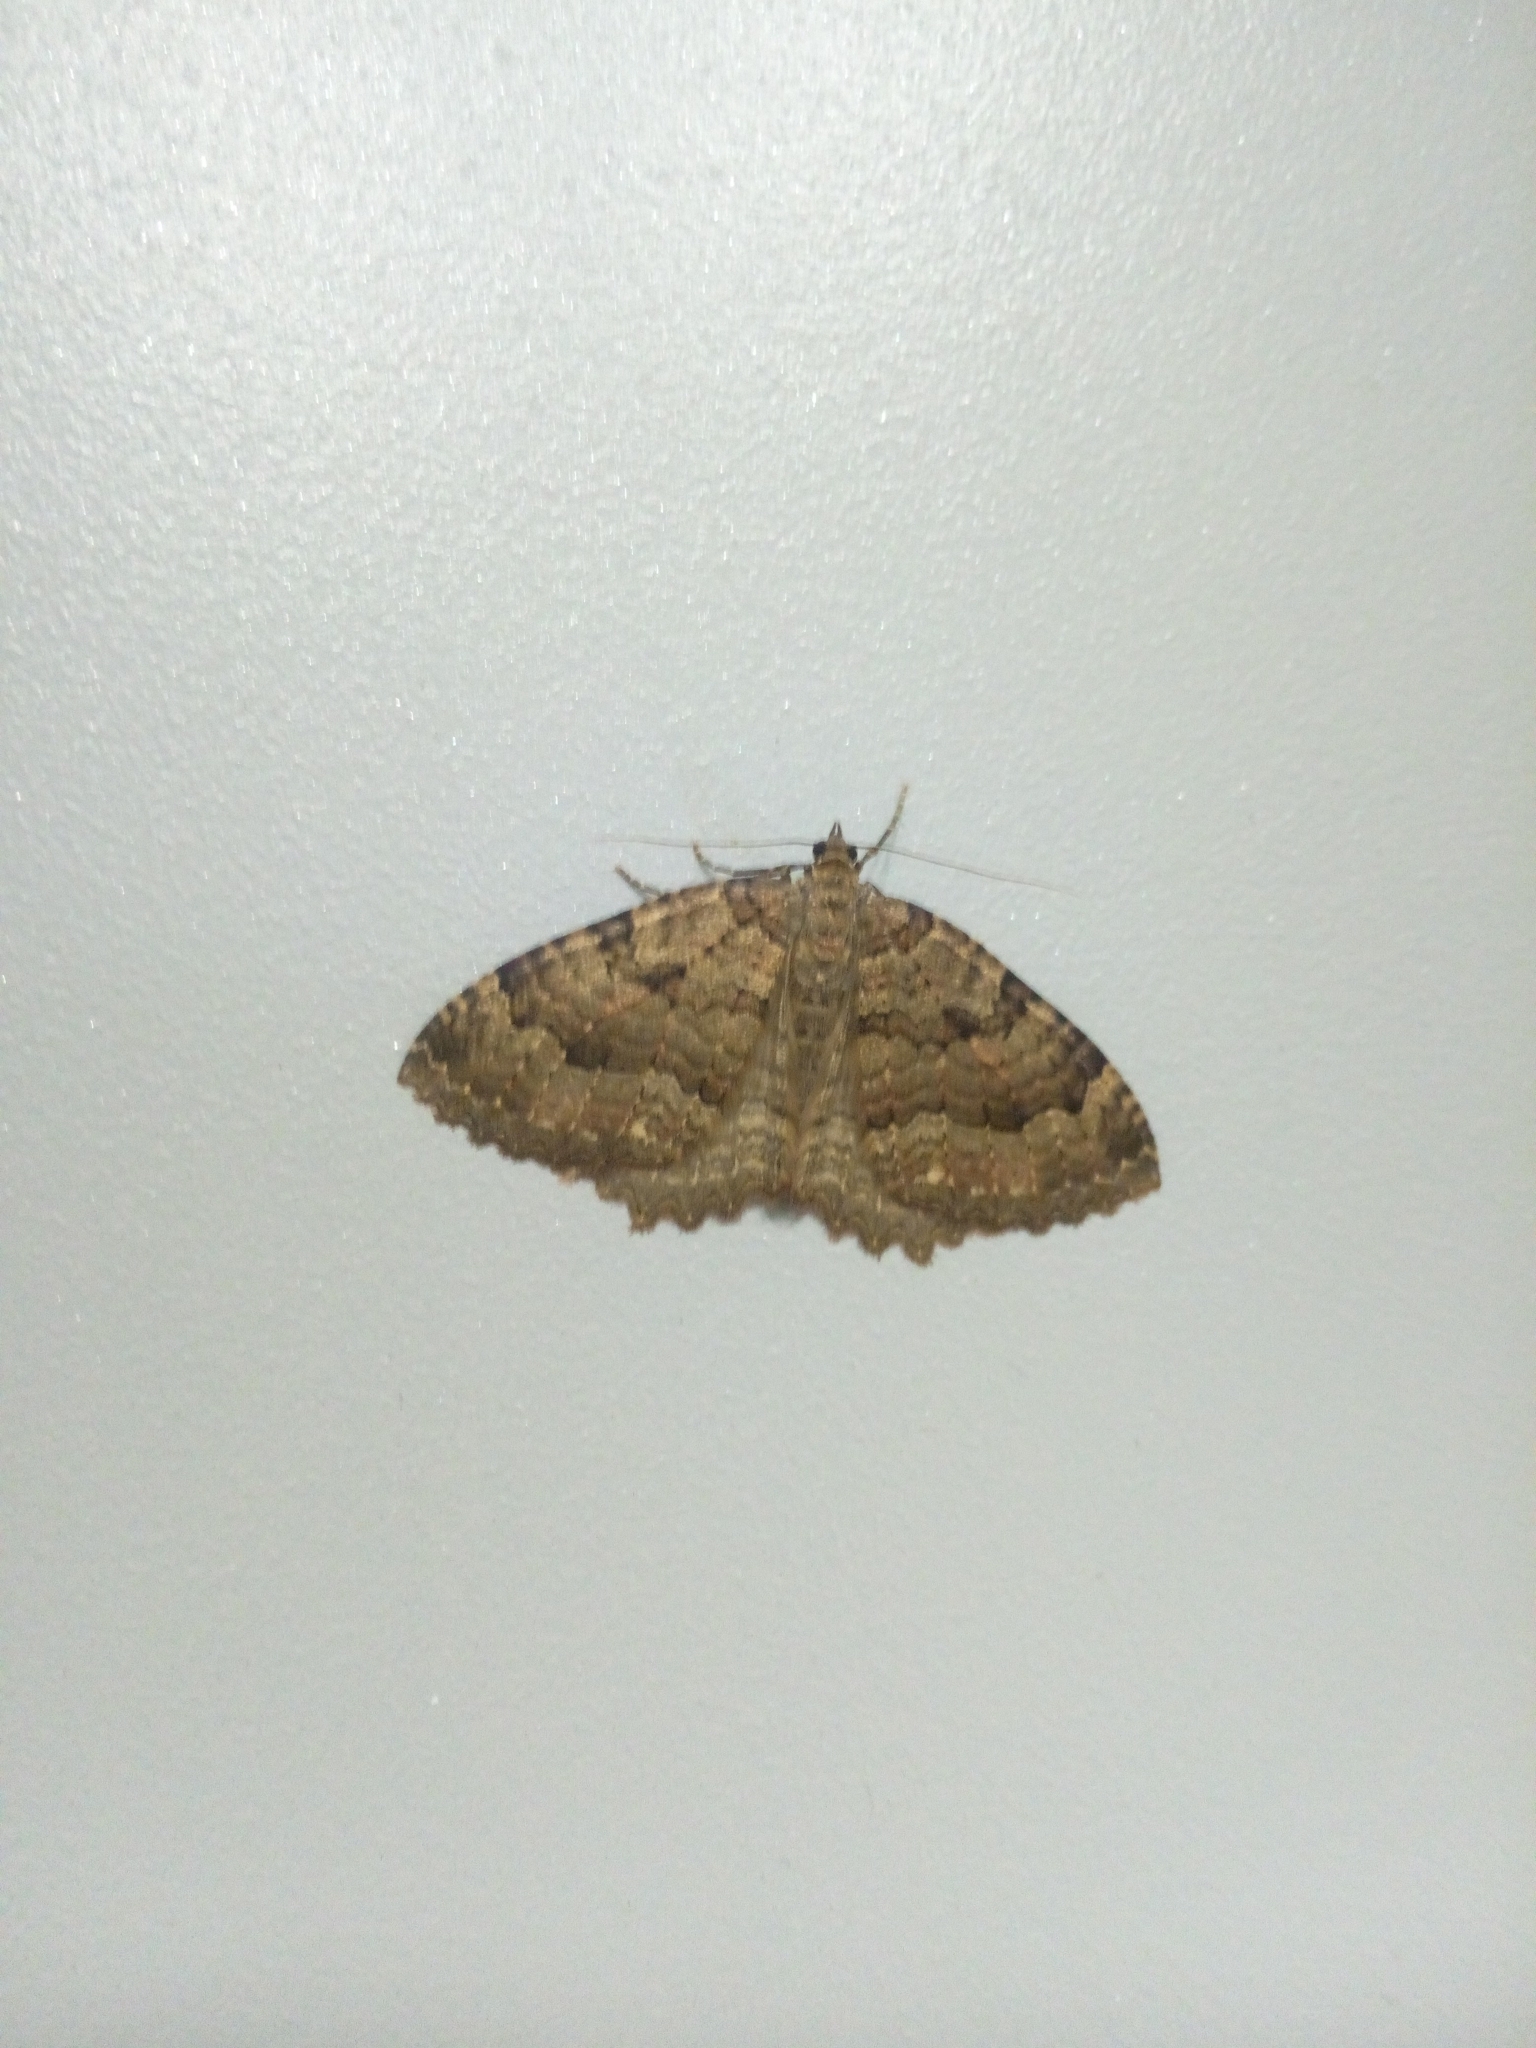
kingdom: Animalia
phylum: Arthropoda
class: Insecta
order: Lepidoptera
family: Geometridae
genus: Triphosa
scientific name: Triphosa dubitata
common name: Tissue
